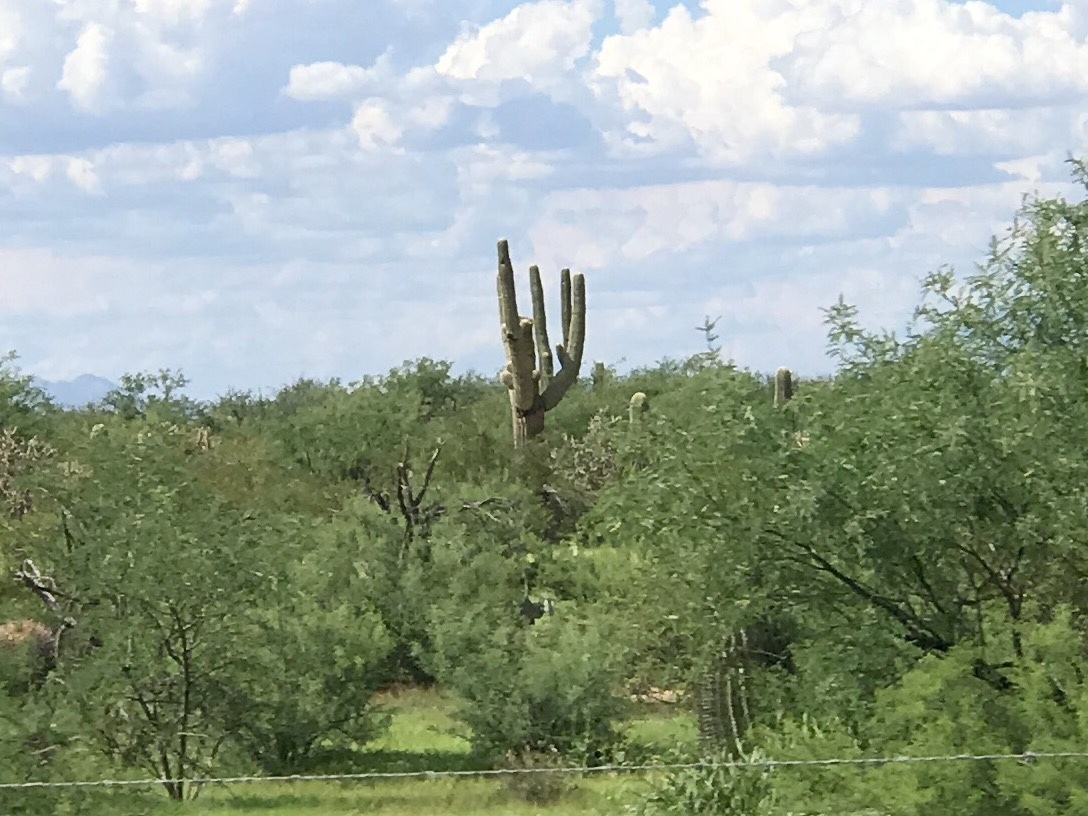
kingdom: Plantae
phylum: Tracheophyta
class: Magnoliopsida
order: Caryophyllales
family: Cactaceae
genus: Carnegiea
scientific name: Carnegiea gigantea
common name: Saguaro
